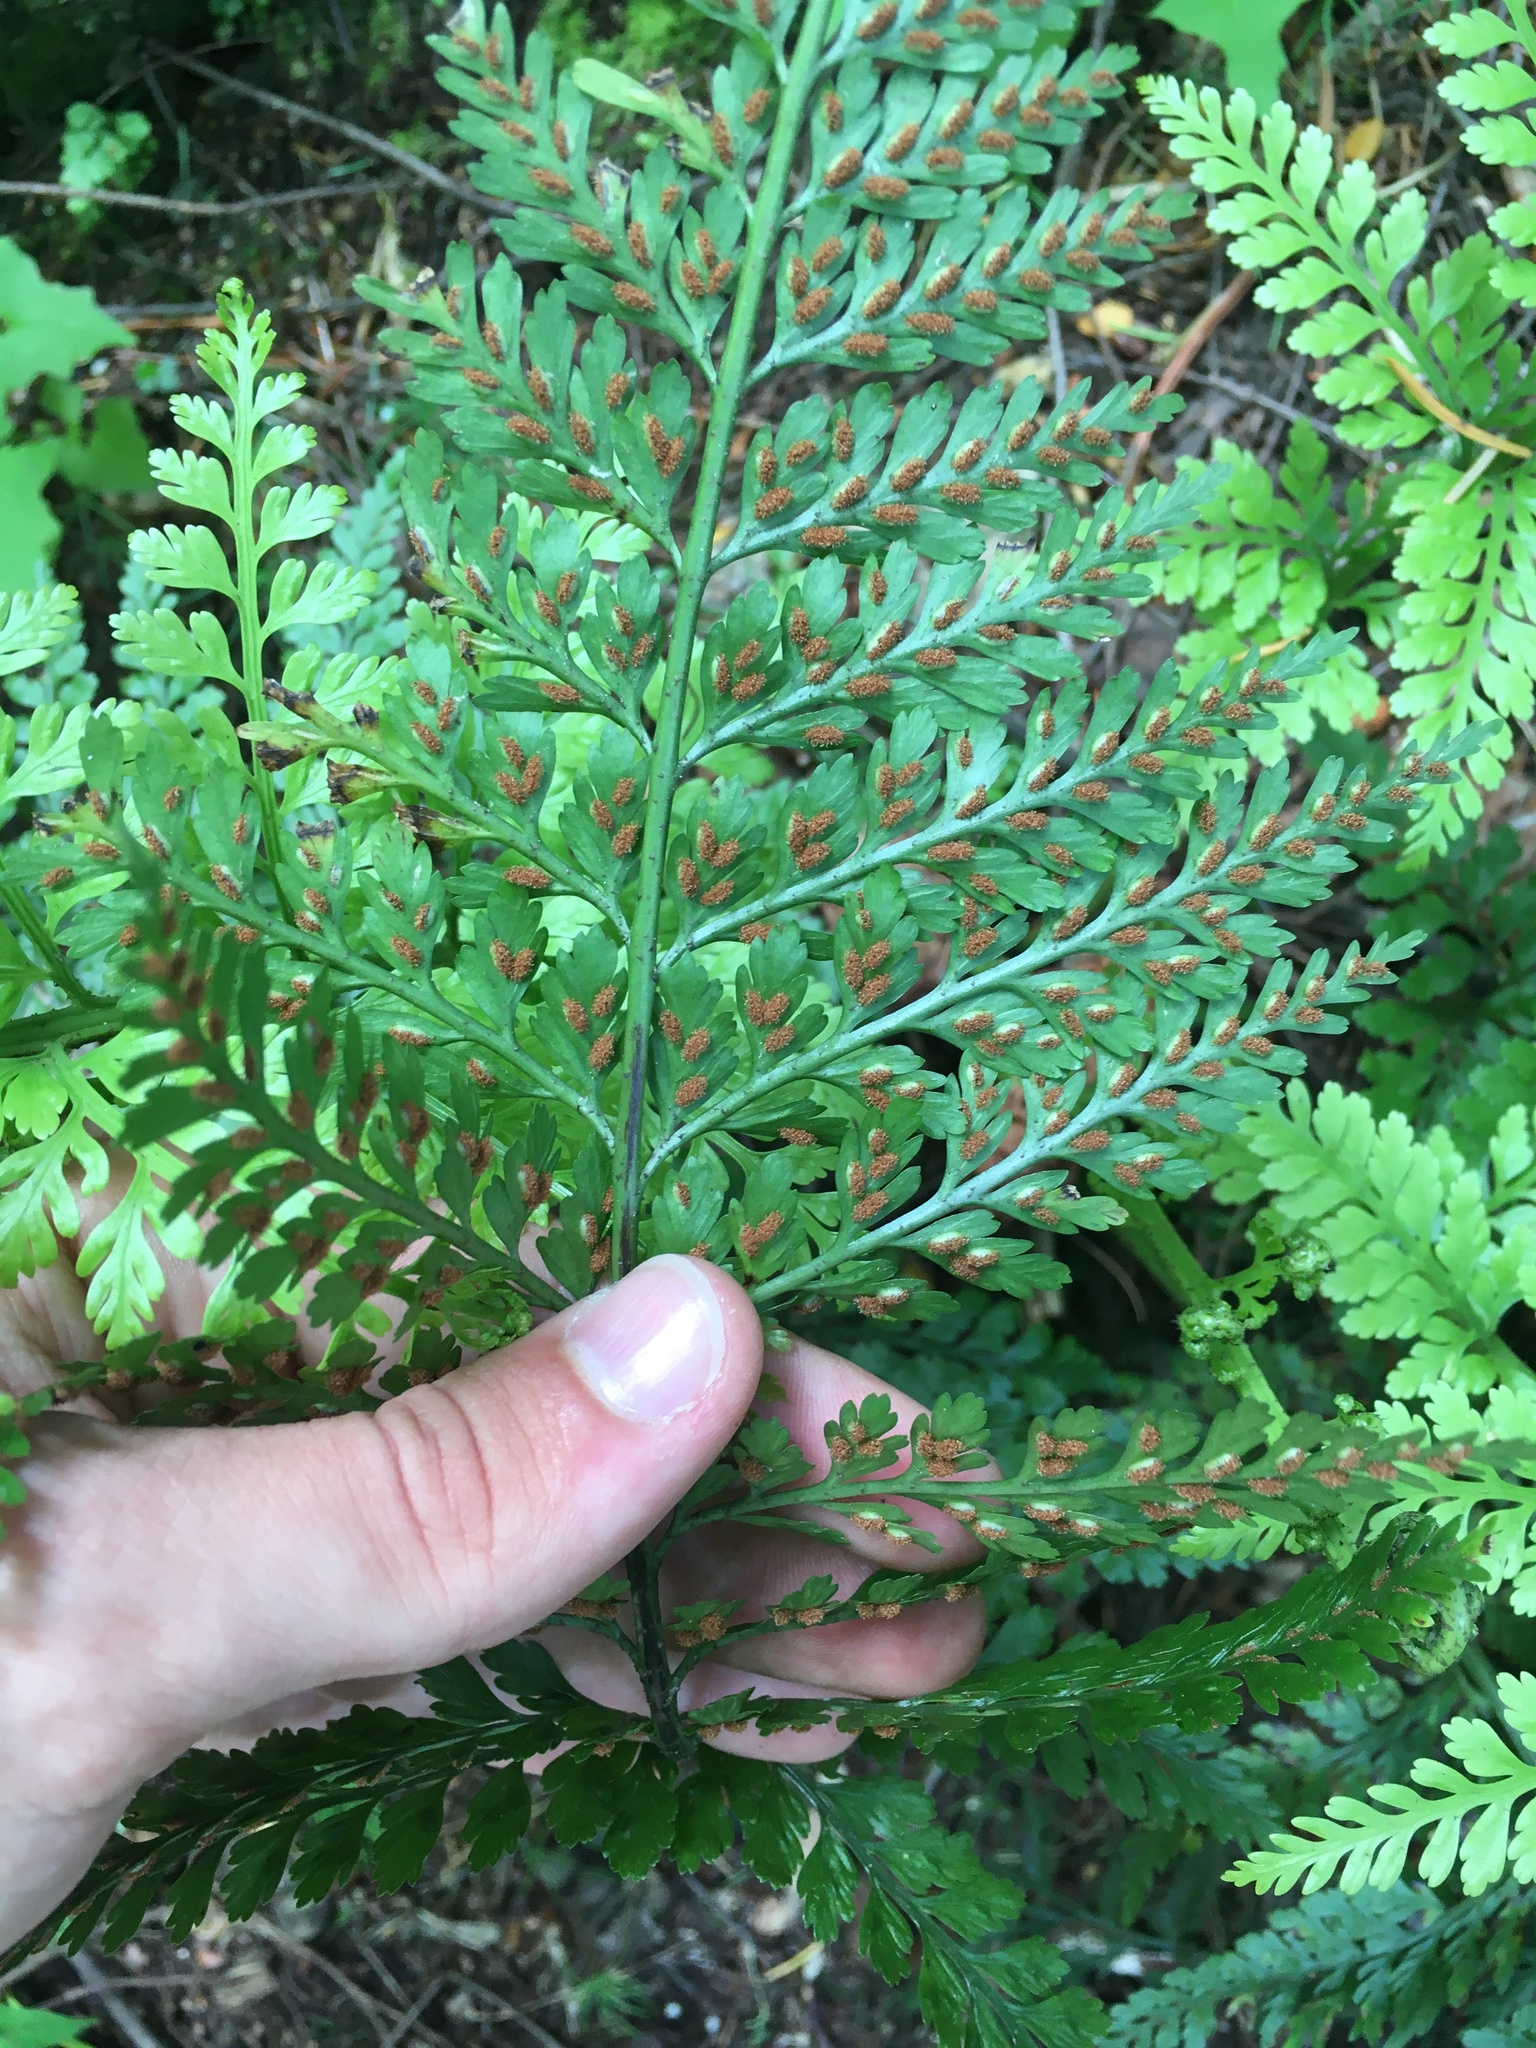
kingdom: Plantae
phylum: Tracheophyta
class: Polypodiopsida
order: Polypodiales
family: Aspleniaceae
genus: Asplenium
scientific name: Asplenium
